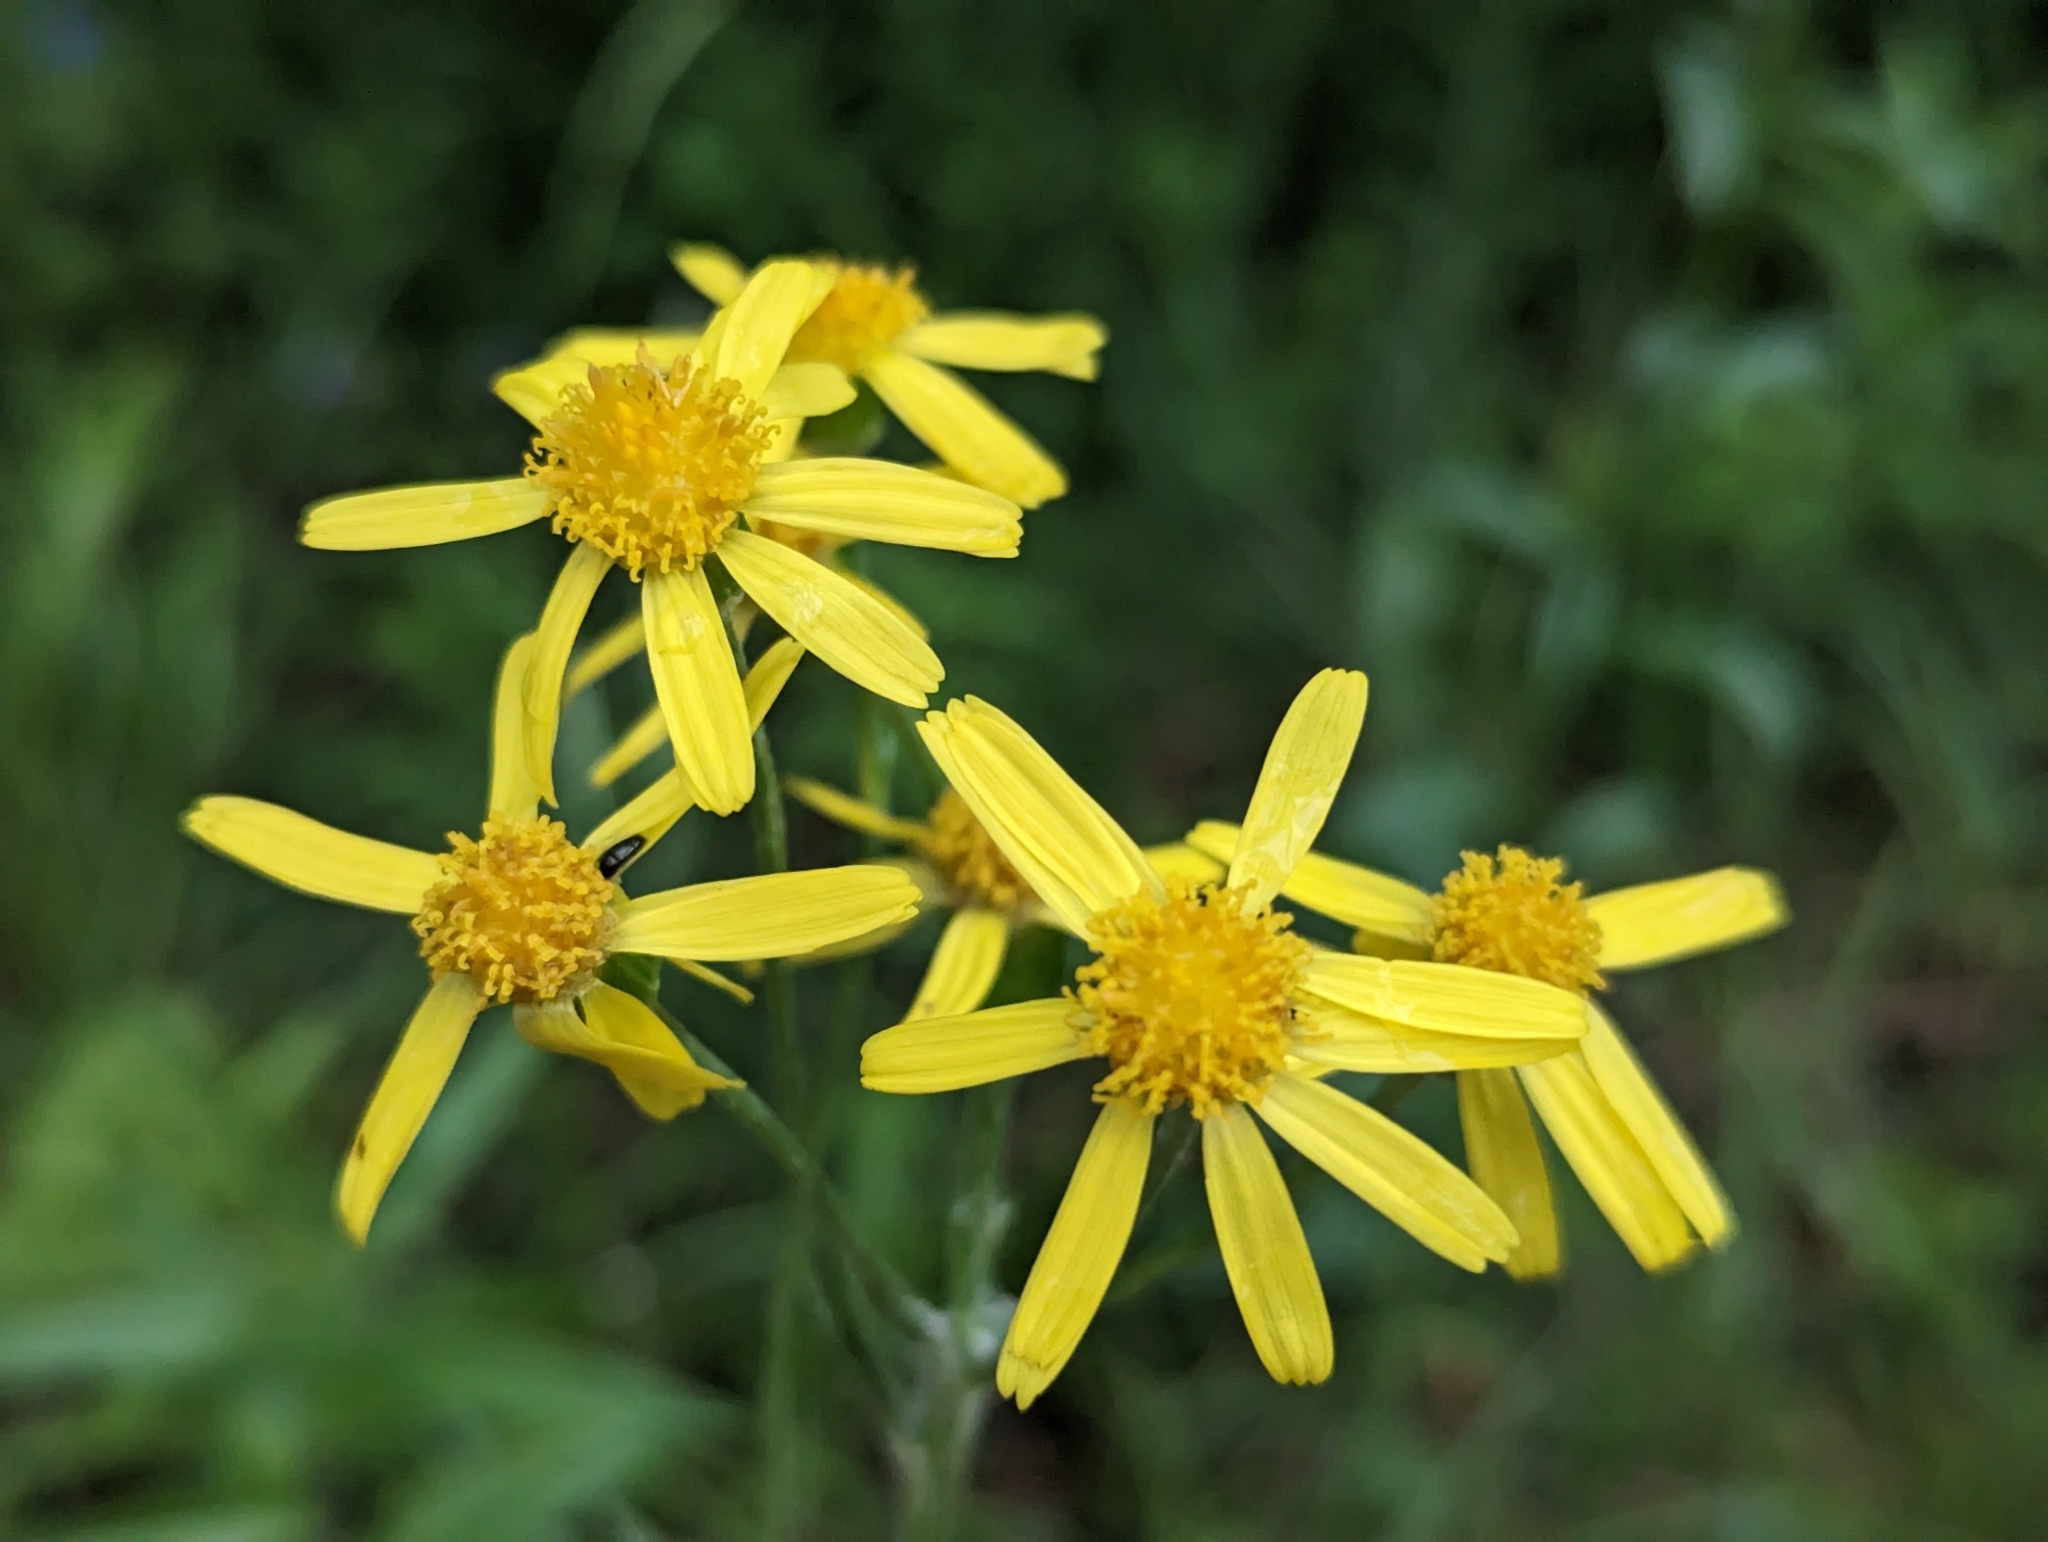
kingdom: Plantae
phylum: Tracheophyta
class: Magnoliopsida
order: Asterales
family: Asteraceae
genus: Tephroseris
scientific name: Tephroseris integrifolia
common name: Field fleawort
